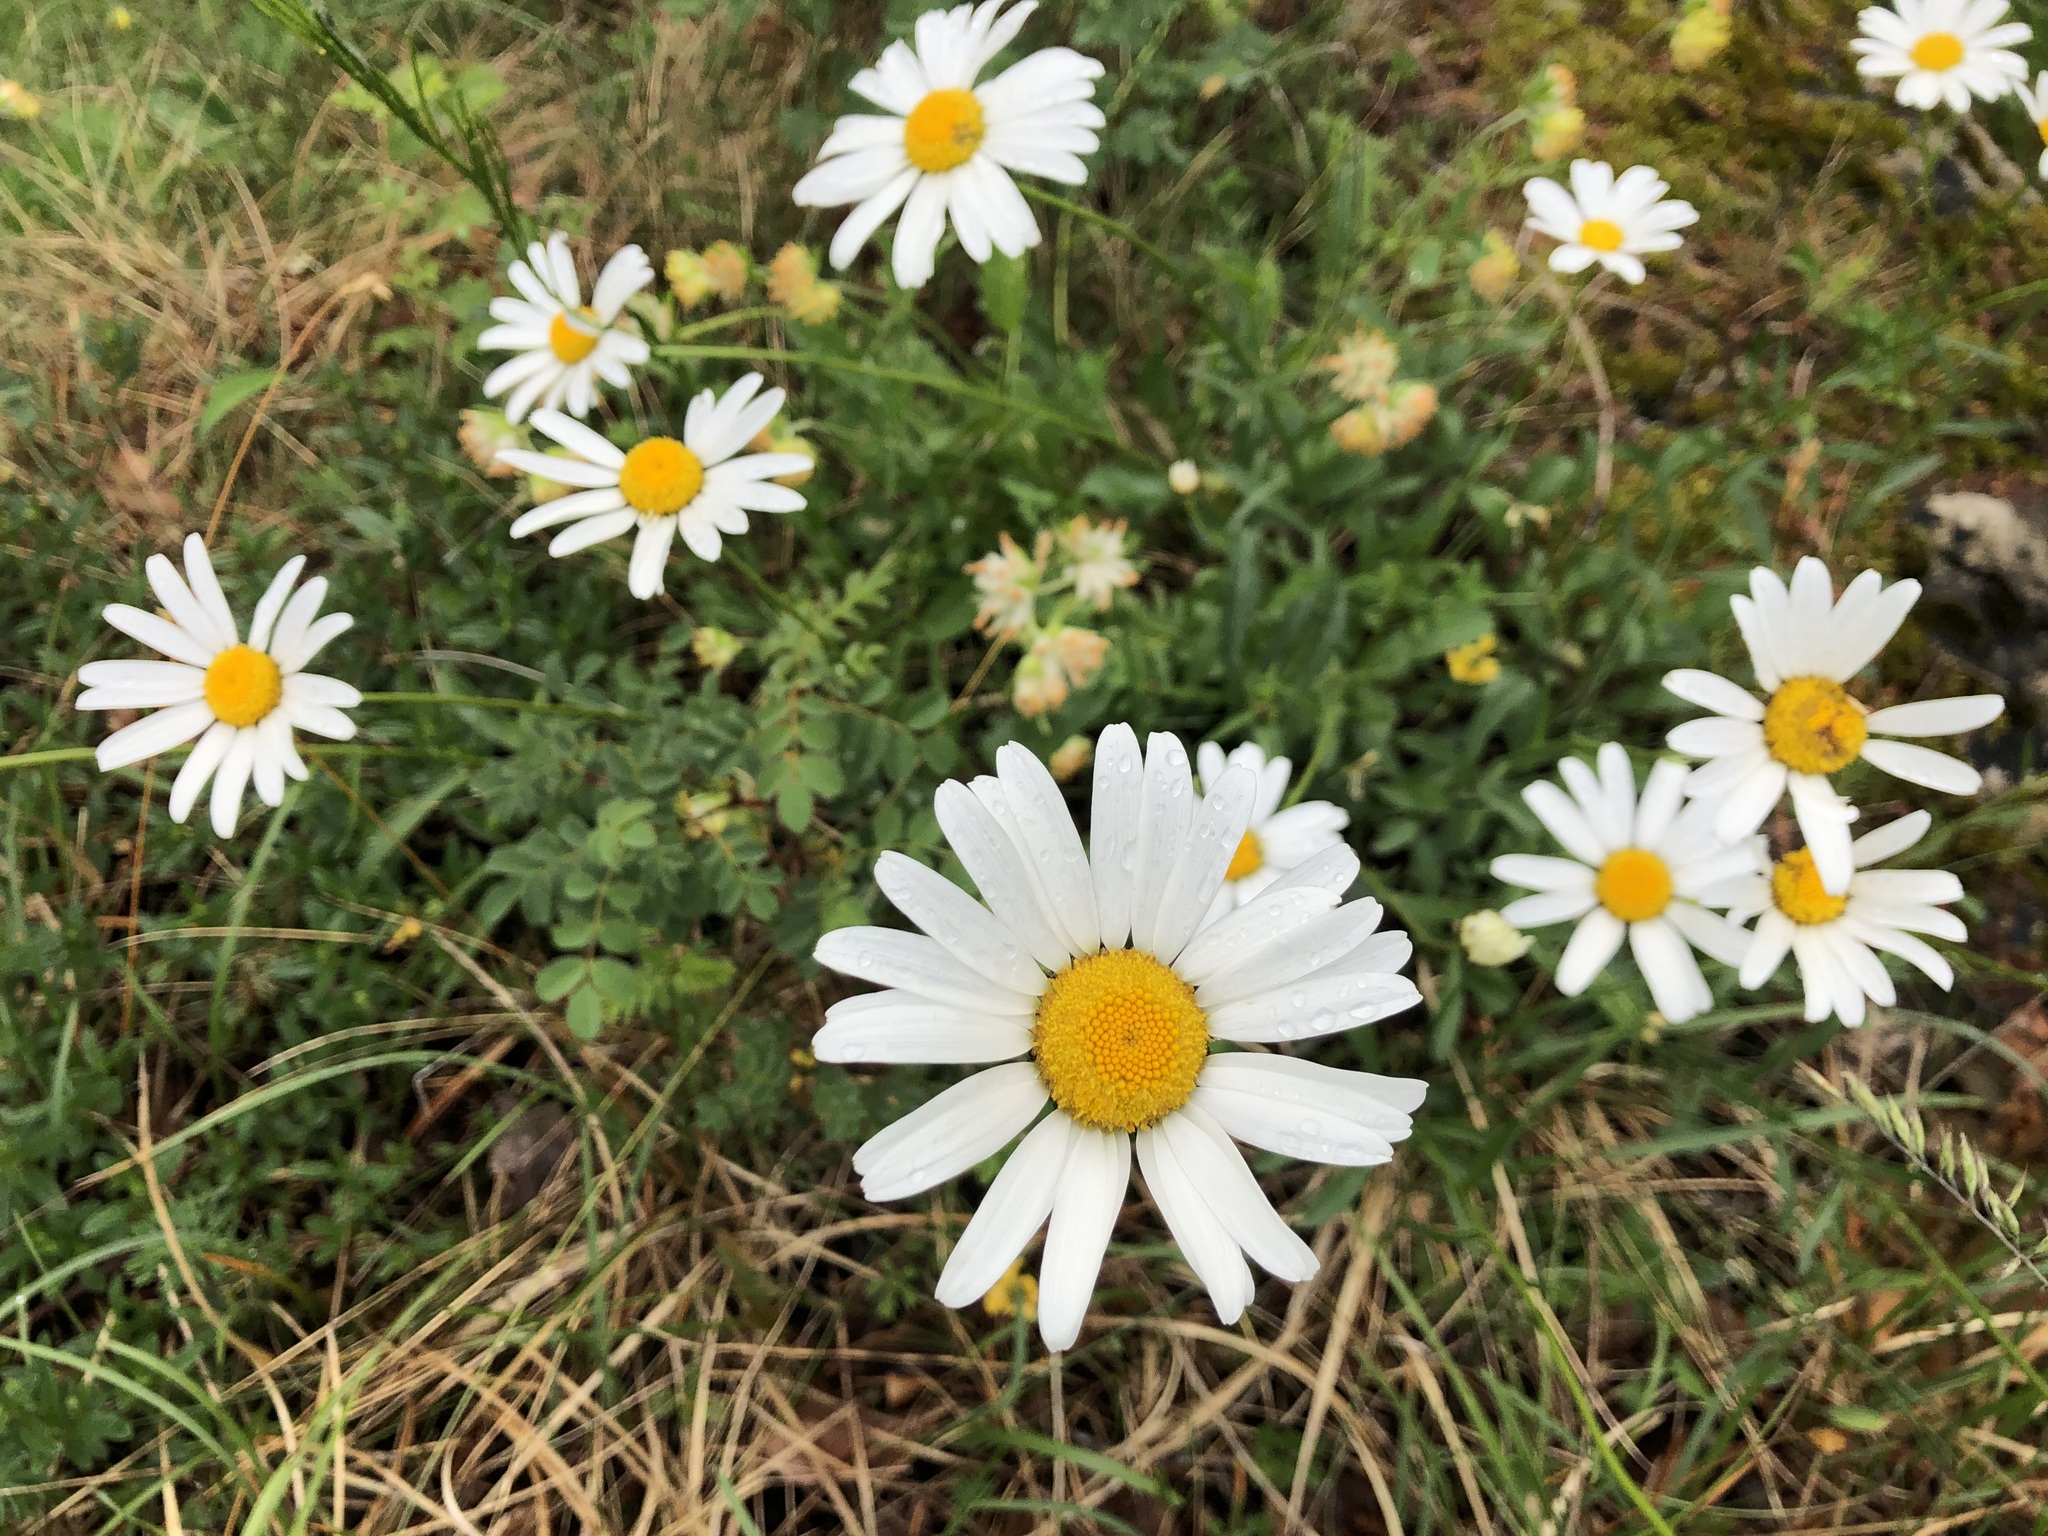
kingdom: Plantae
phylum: Tracheophyta
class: Magnoliopsida
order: Asterales
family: Asteraceae
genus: Leucanthemum
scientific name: Leucanthemum vulgare
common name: Oxeye daisy
